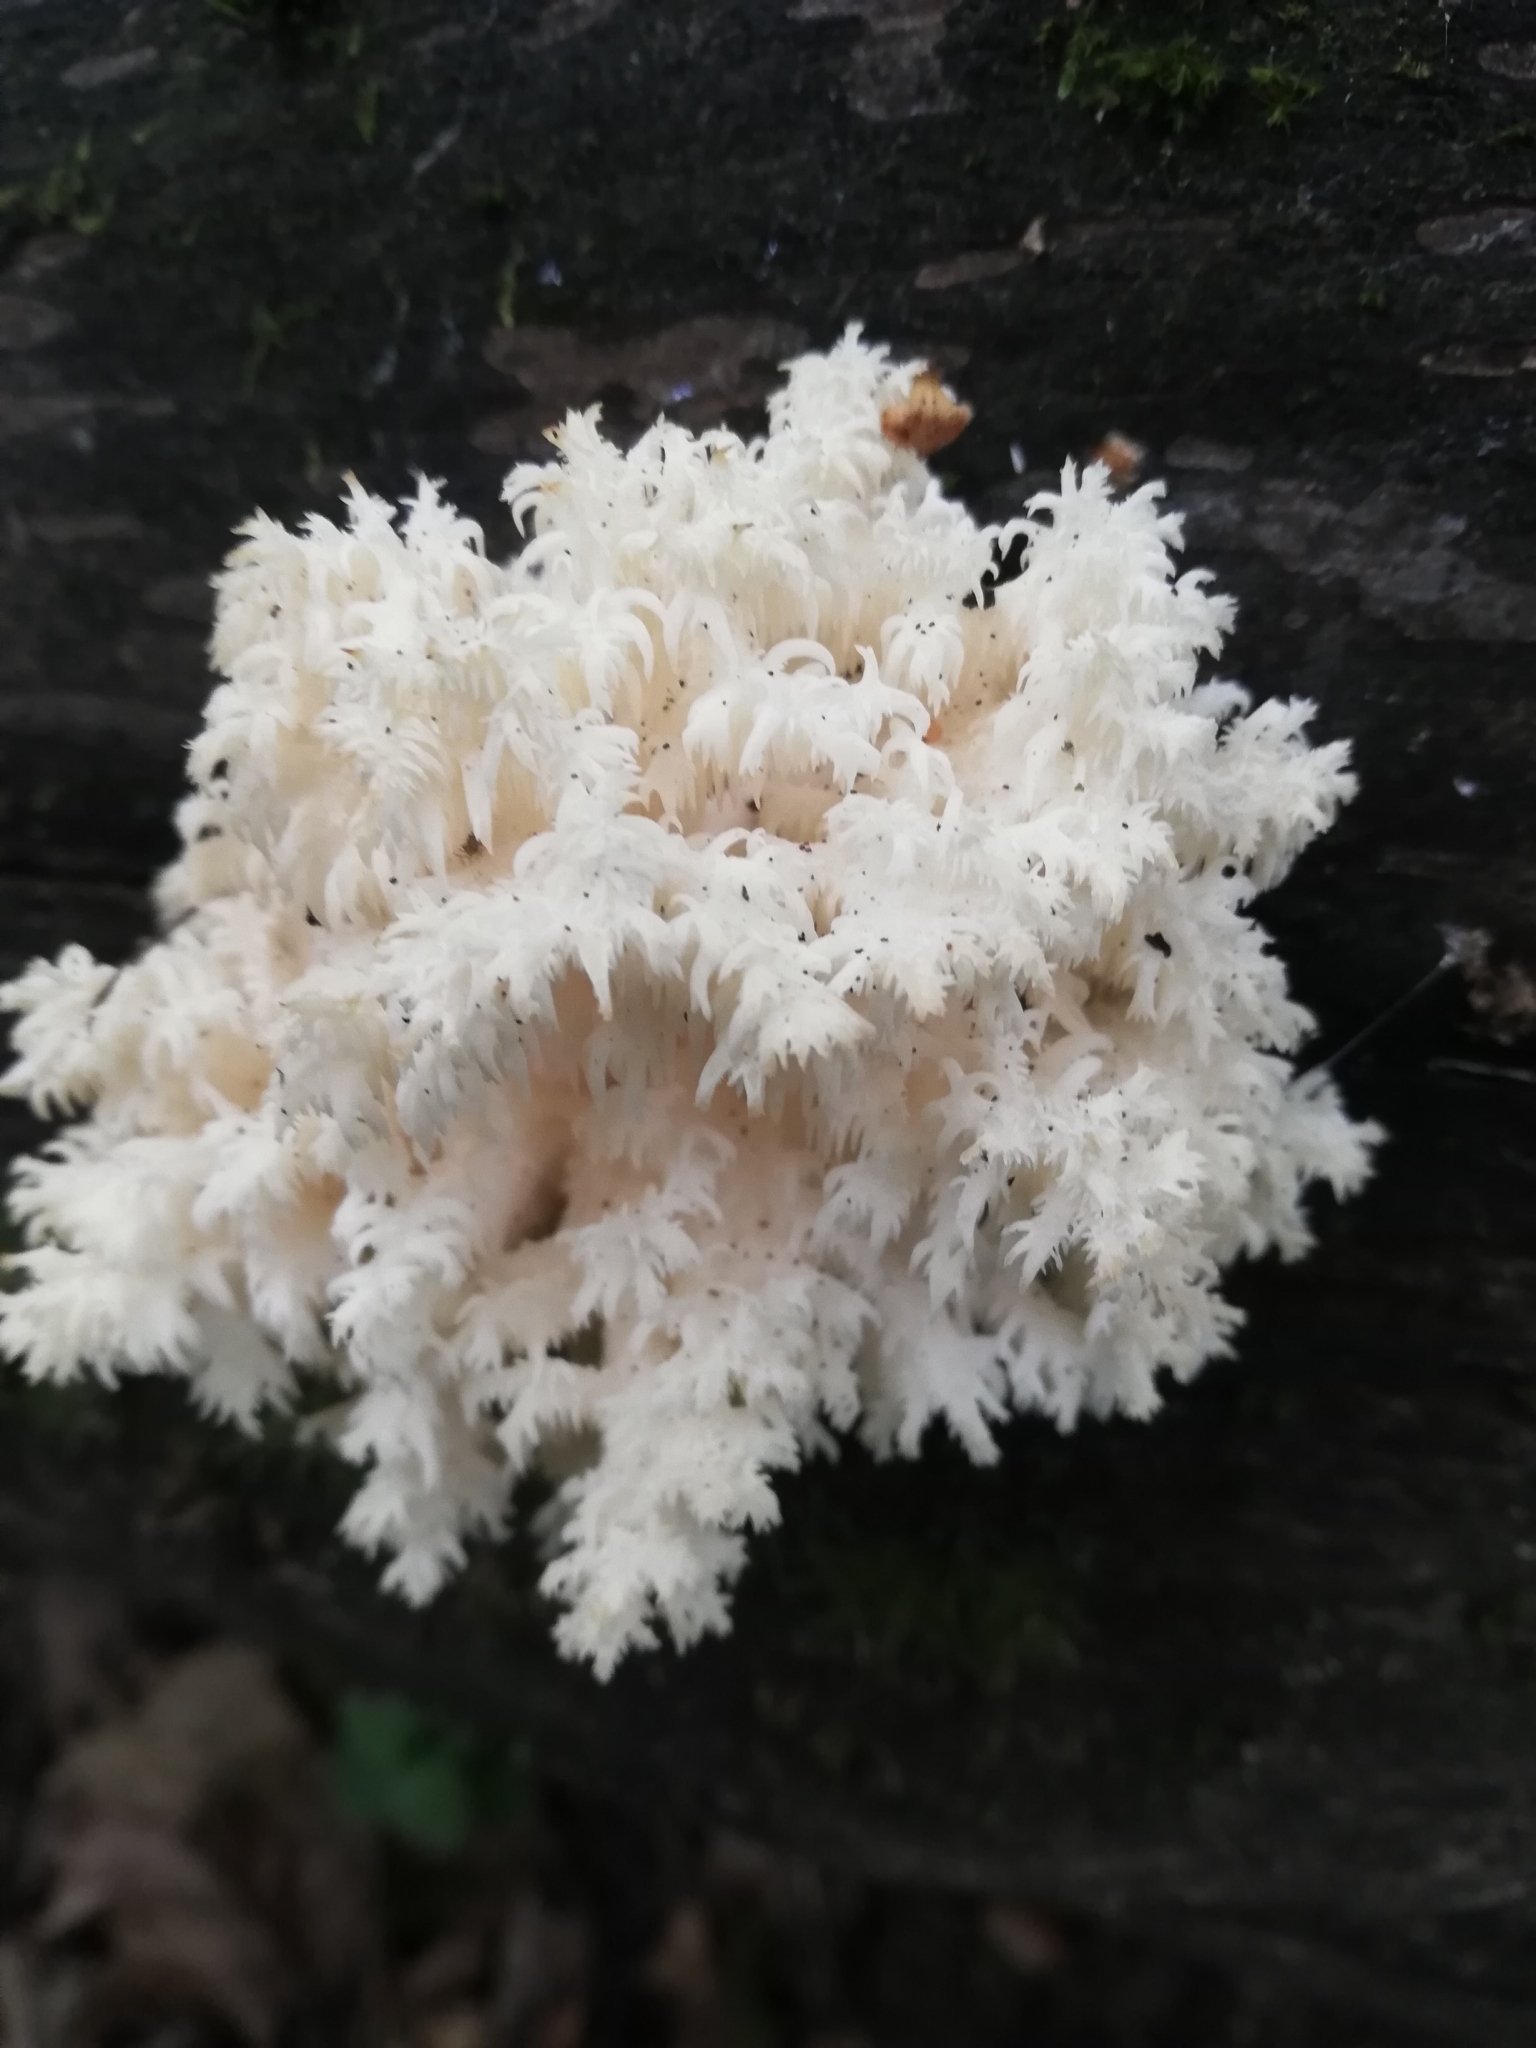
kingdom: Fungi
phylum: Basidiomycota
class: Agaricomycetes
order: Russulales
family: Hericiaceae
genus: Hericium
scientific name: Hericium coralloides
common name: Coral tooth
